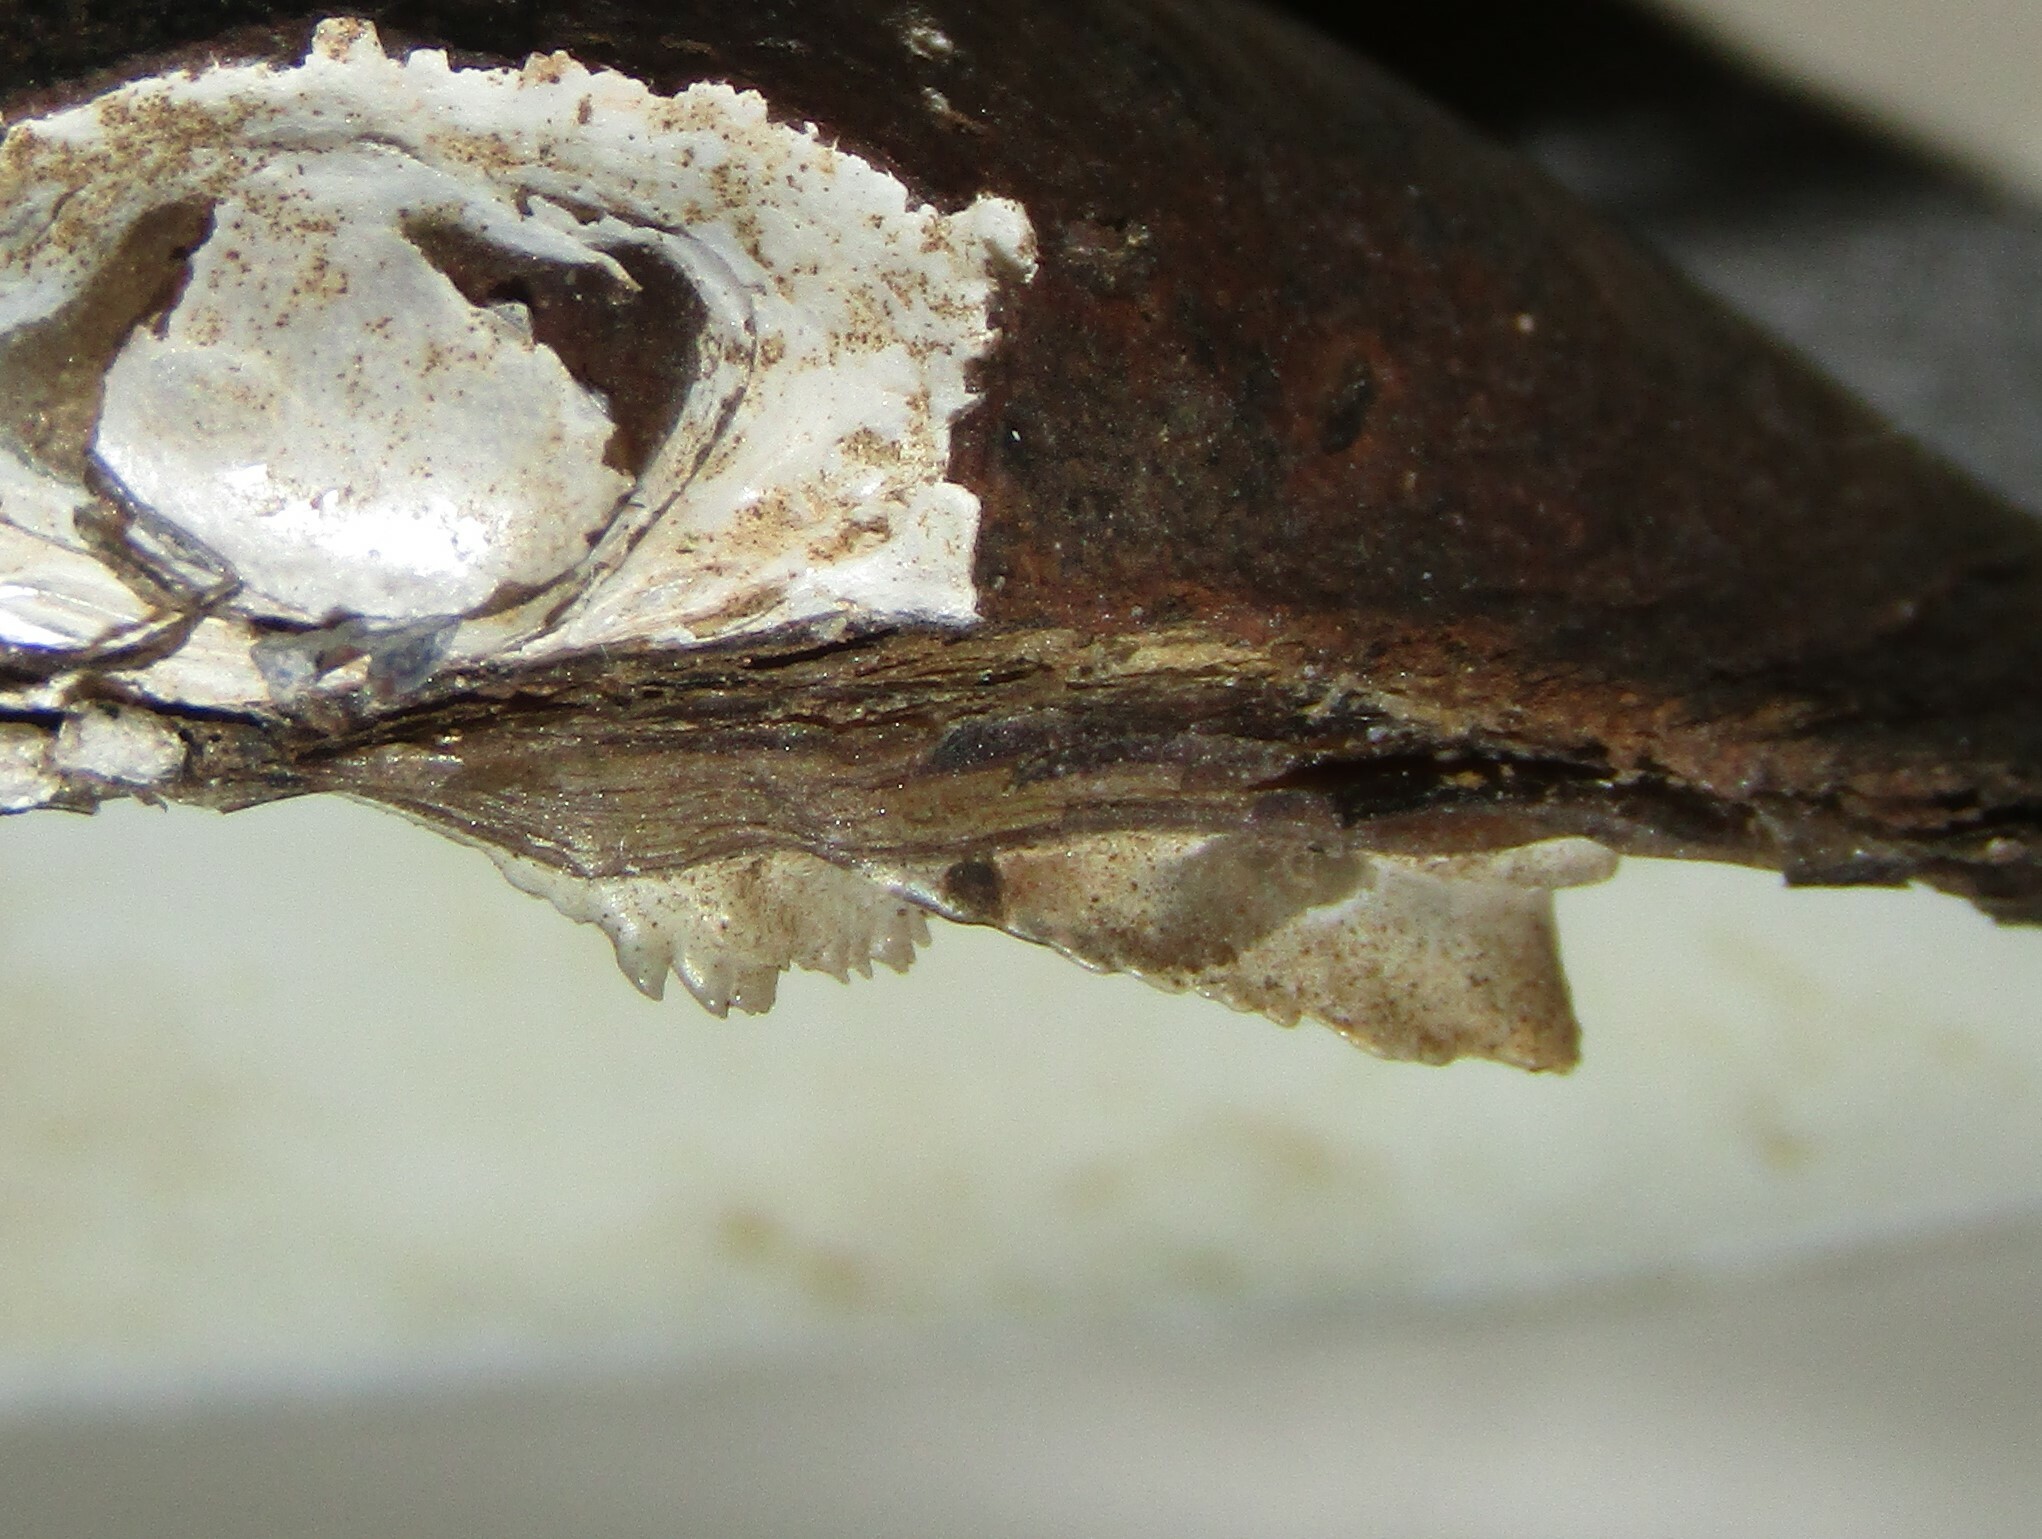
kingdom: Animalia
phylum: Mollusca
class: Bivalvia
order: Unionida
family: Unionidae
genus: Unio
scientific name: Unio pictorum
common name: Painter's mussel
